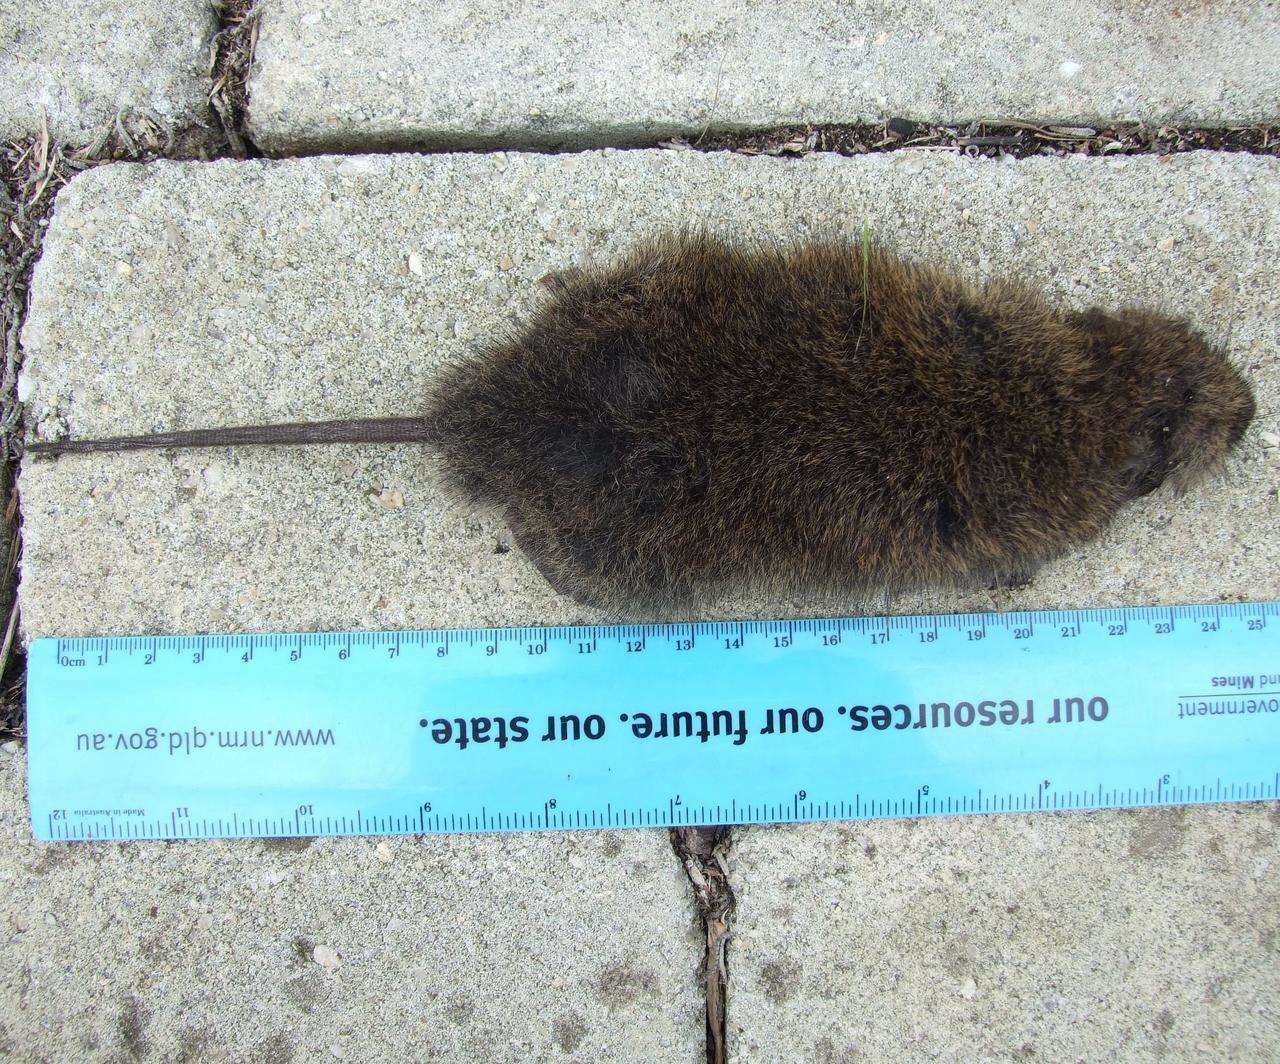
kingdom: Animalia
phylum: Chordata
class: Mammalia
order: Rodentia
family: Muridae
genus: Rattus
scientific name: Rattus lutreolus
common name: Australian swamp rat
